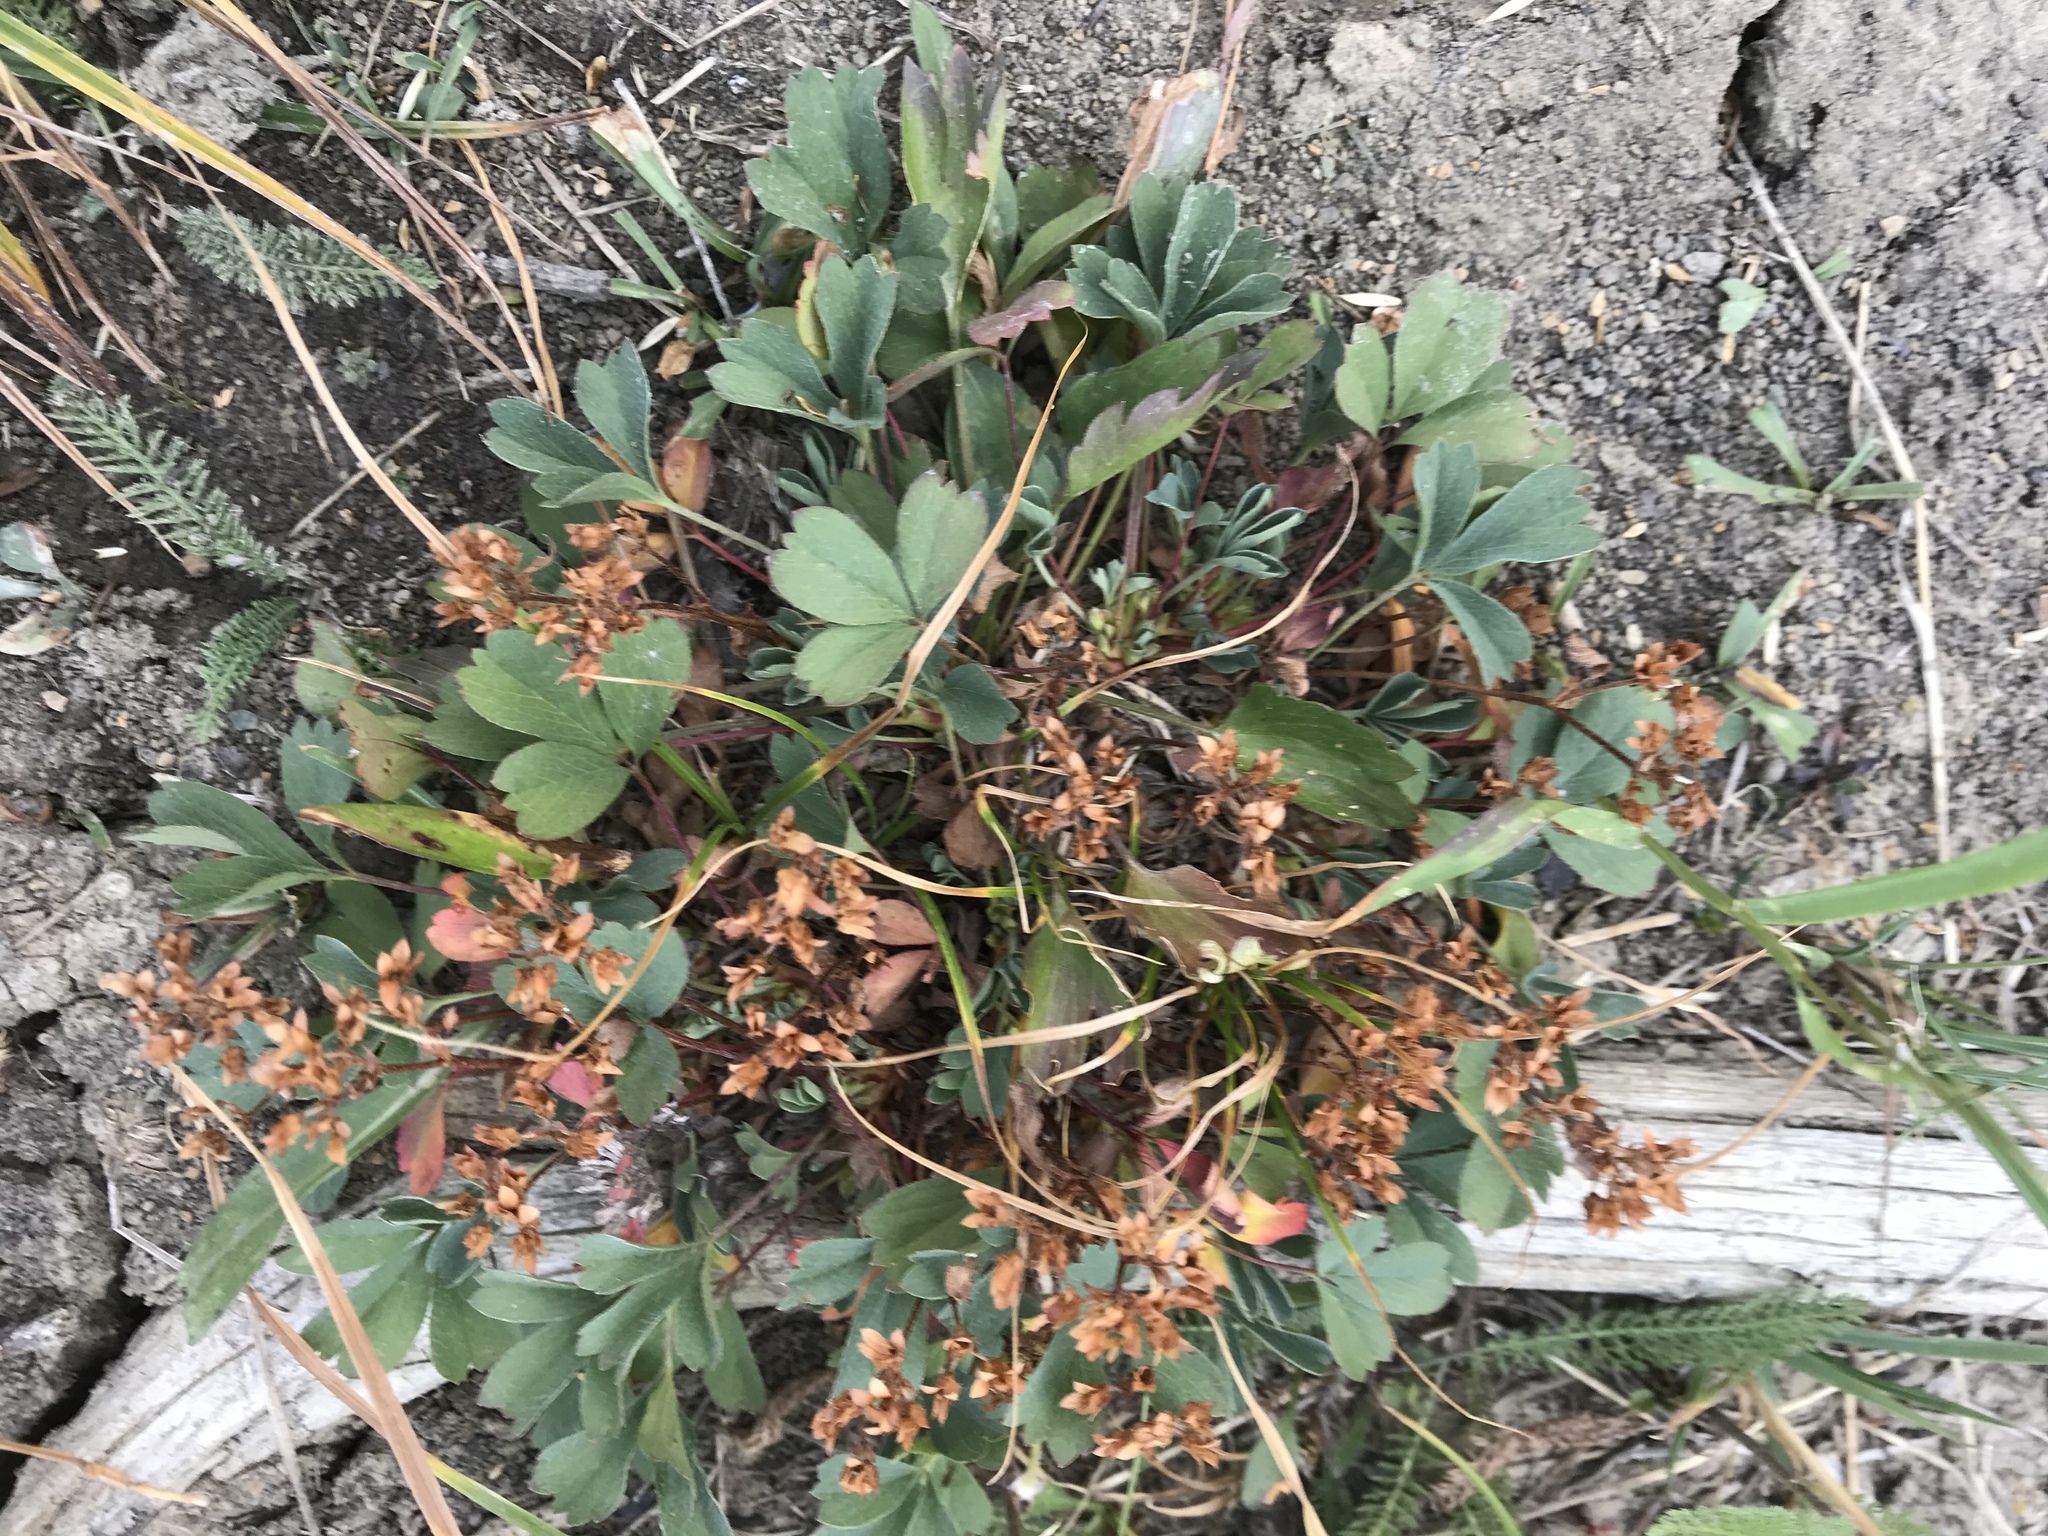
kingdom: Plantae
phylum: Tracheophyta
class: Magnoliopsida
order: Rosales
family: Rosaceae
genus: Sibbaldia
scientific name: Sibbaldia procumbens
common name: Creeping sibbaldia
